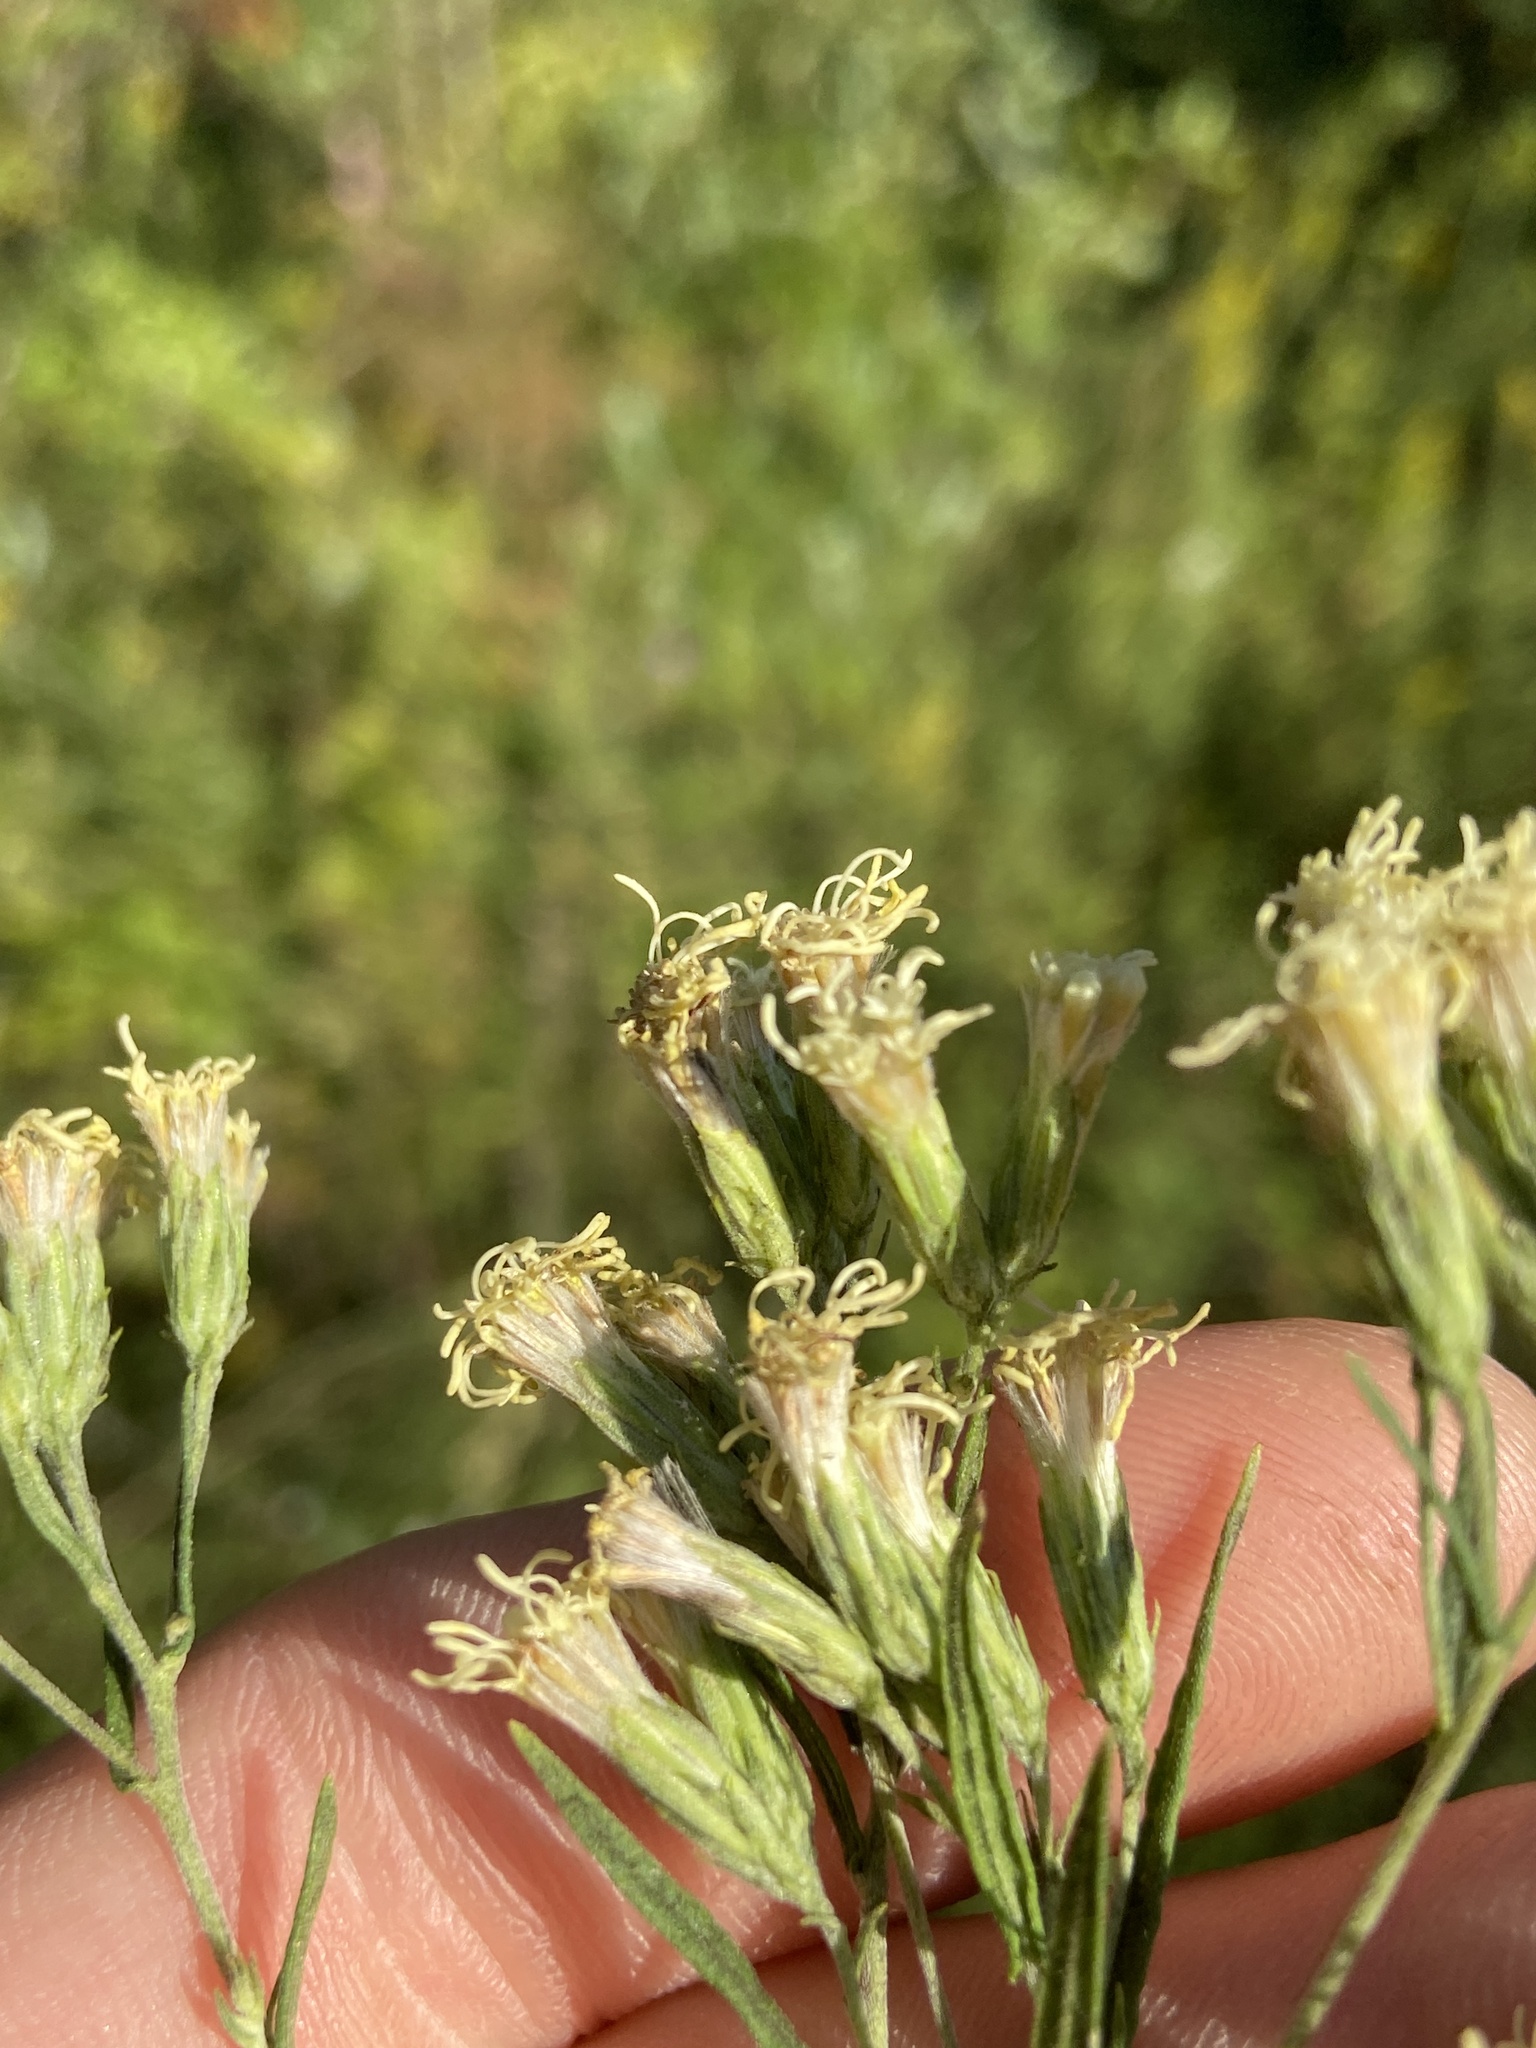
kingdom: Plantae
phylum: Tracheophyta
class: Magnoliopsida
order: Asterales
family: Asteraceae
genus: Brickellia
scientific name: Brickellia eupatorioides
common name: False boneset
